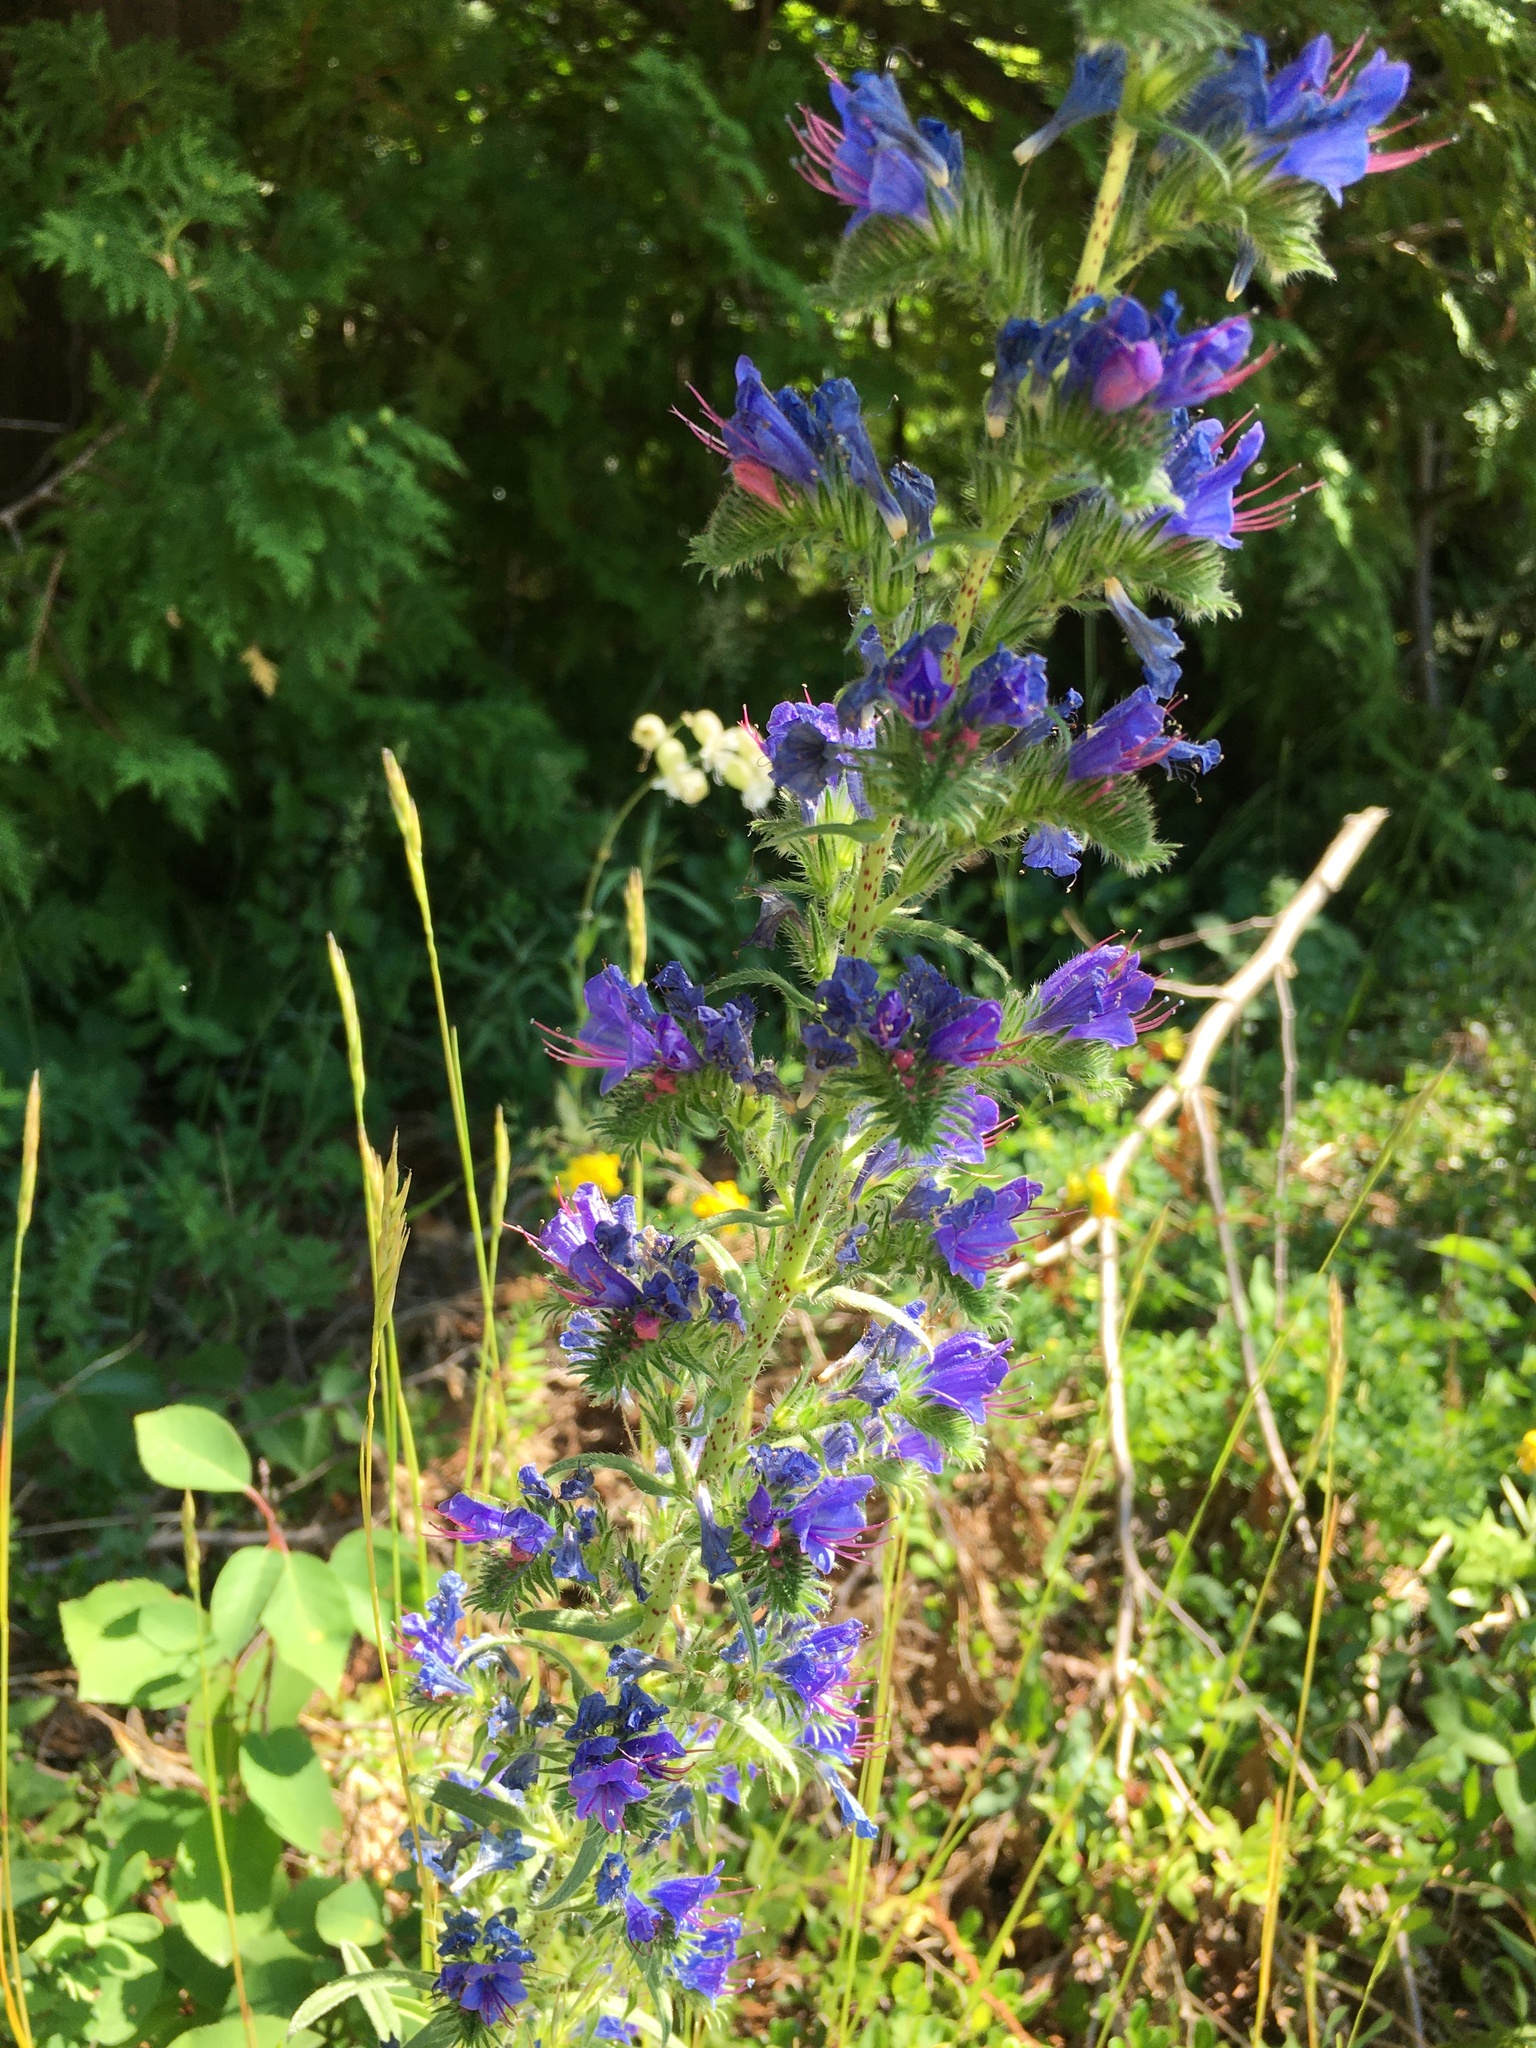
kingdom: Plantae
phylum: Tracheophyta
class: Magnoliopsida
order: Boraginales
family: Boraginaceae
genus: Echium
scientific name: Echium vulgare
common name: Common viper's bugloss
